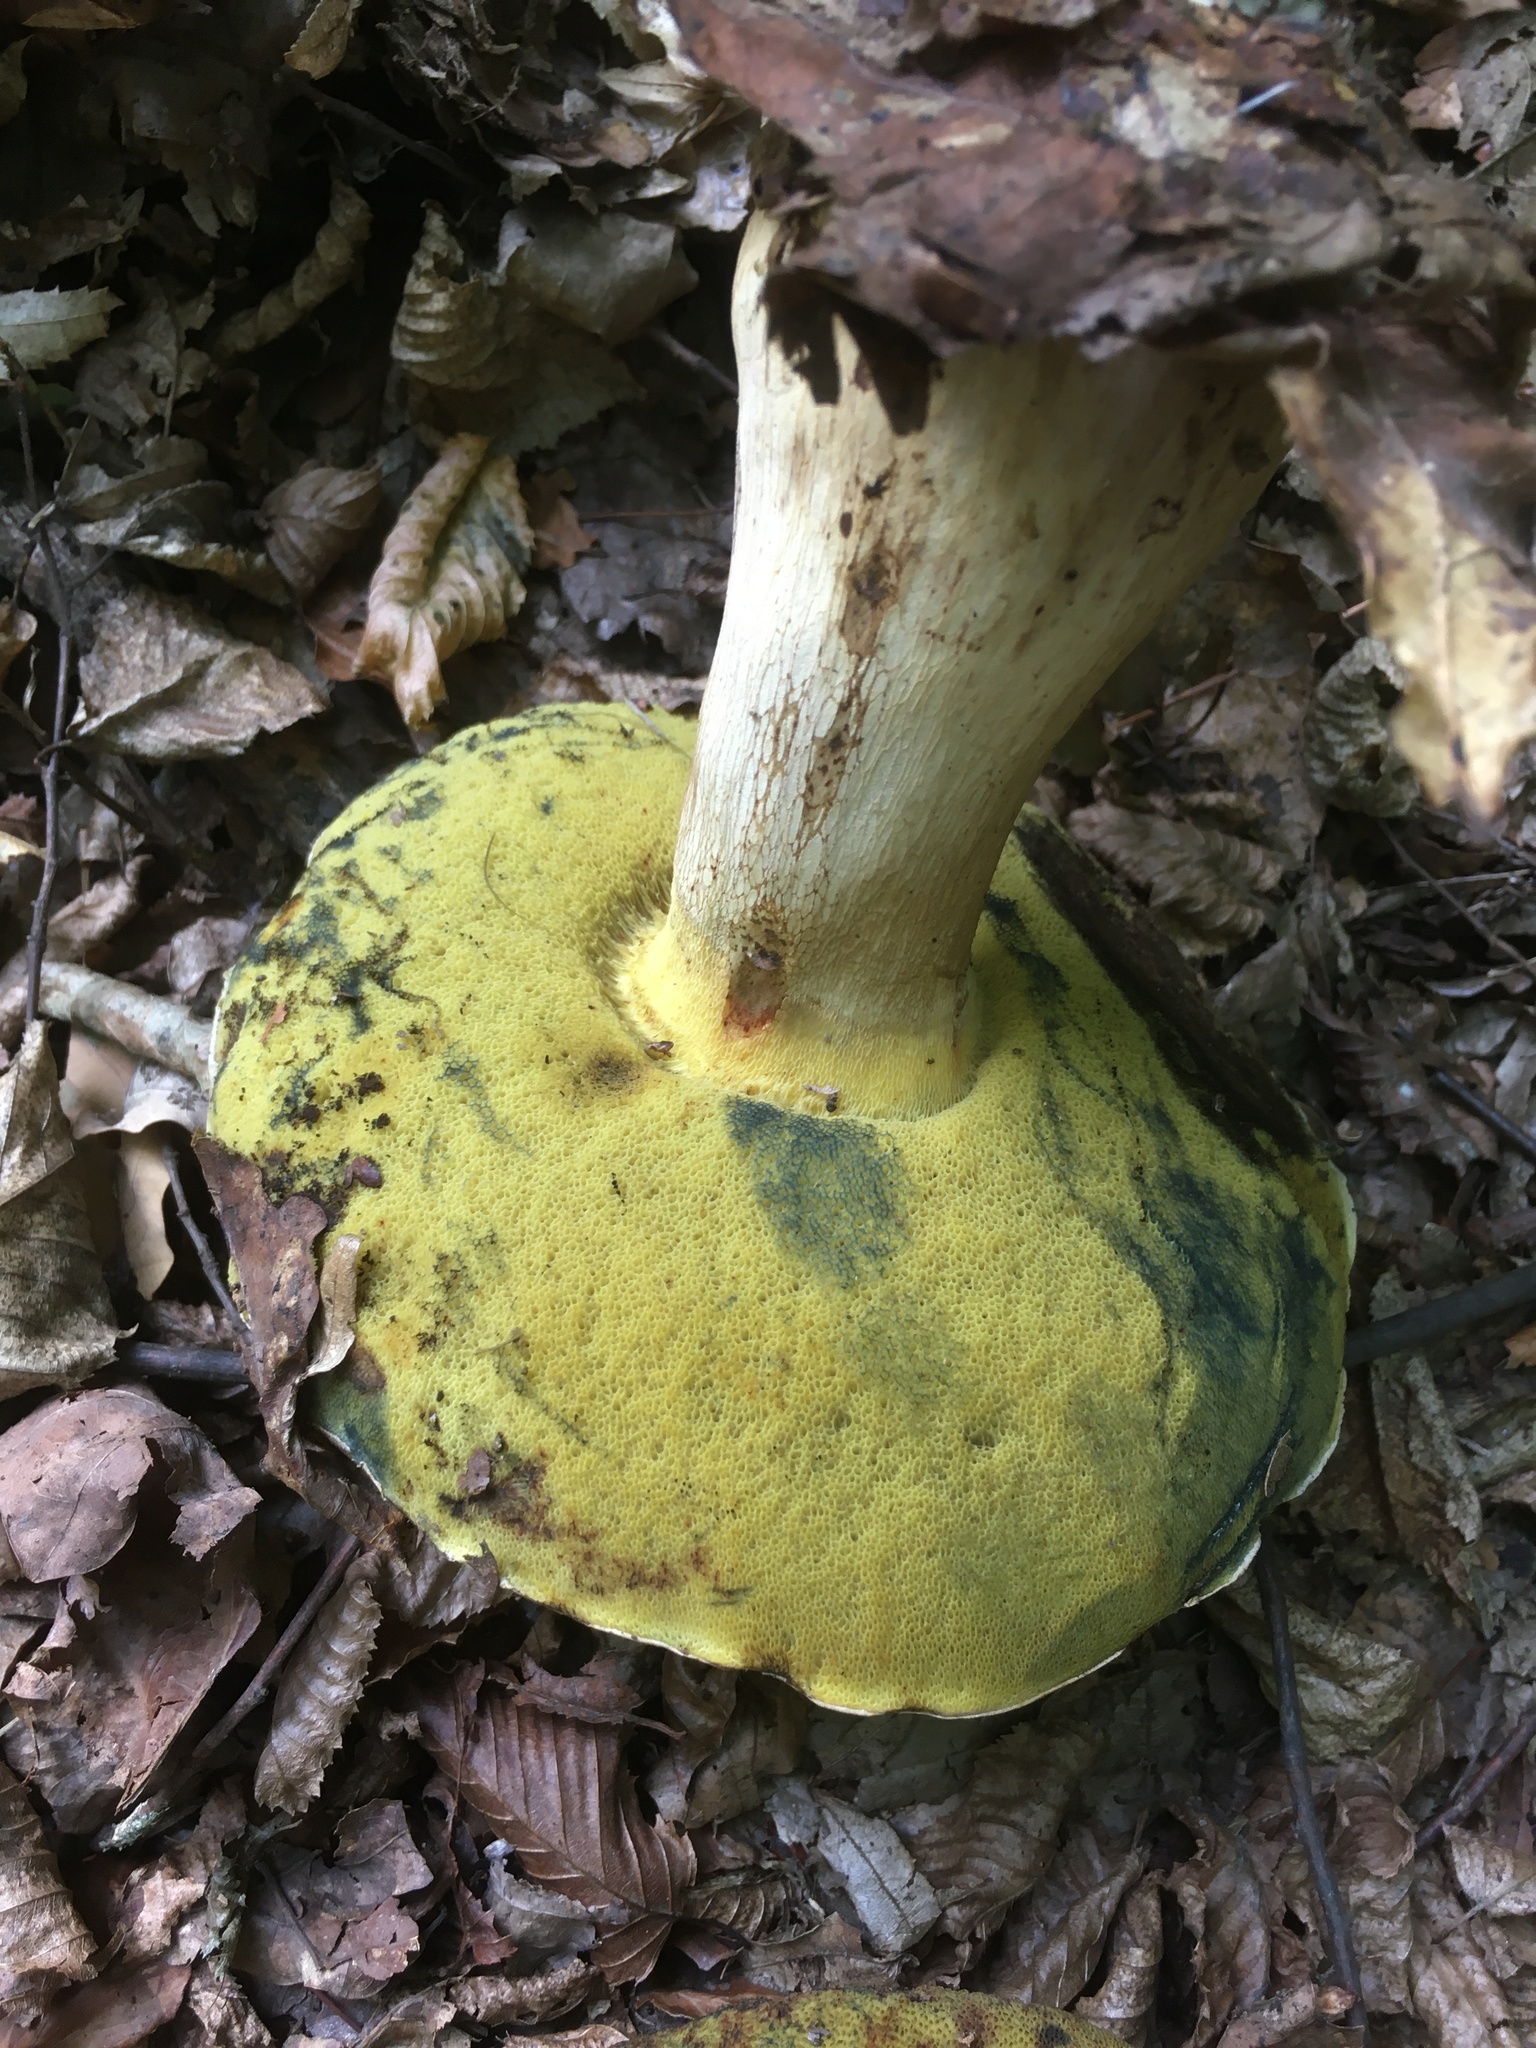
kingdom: Fungi
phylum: Basidiomycota
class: Agaricomycetes
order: Boletales
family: Boletaceae
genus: Caloboletus
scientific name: Caloboletus radicans
